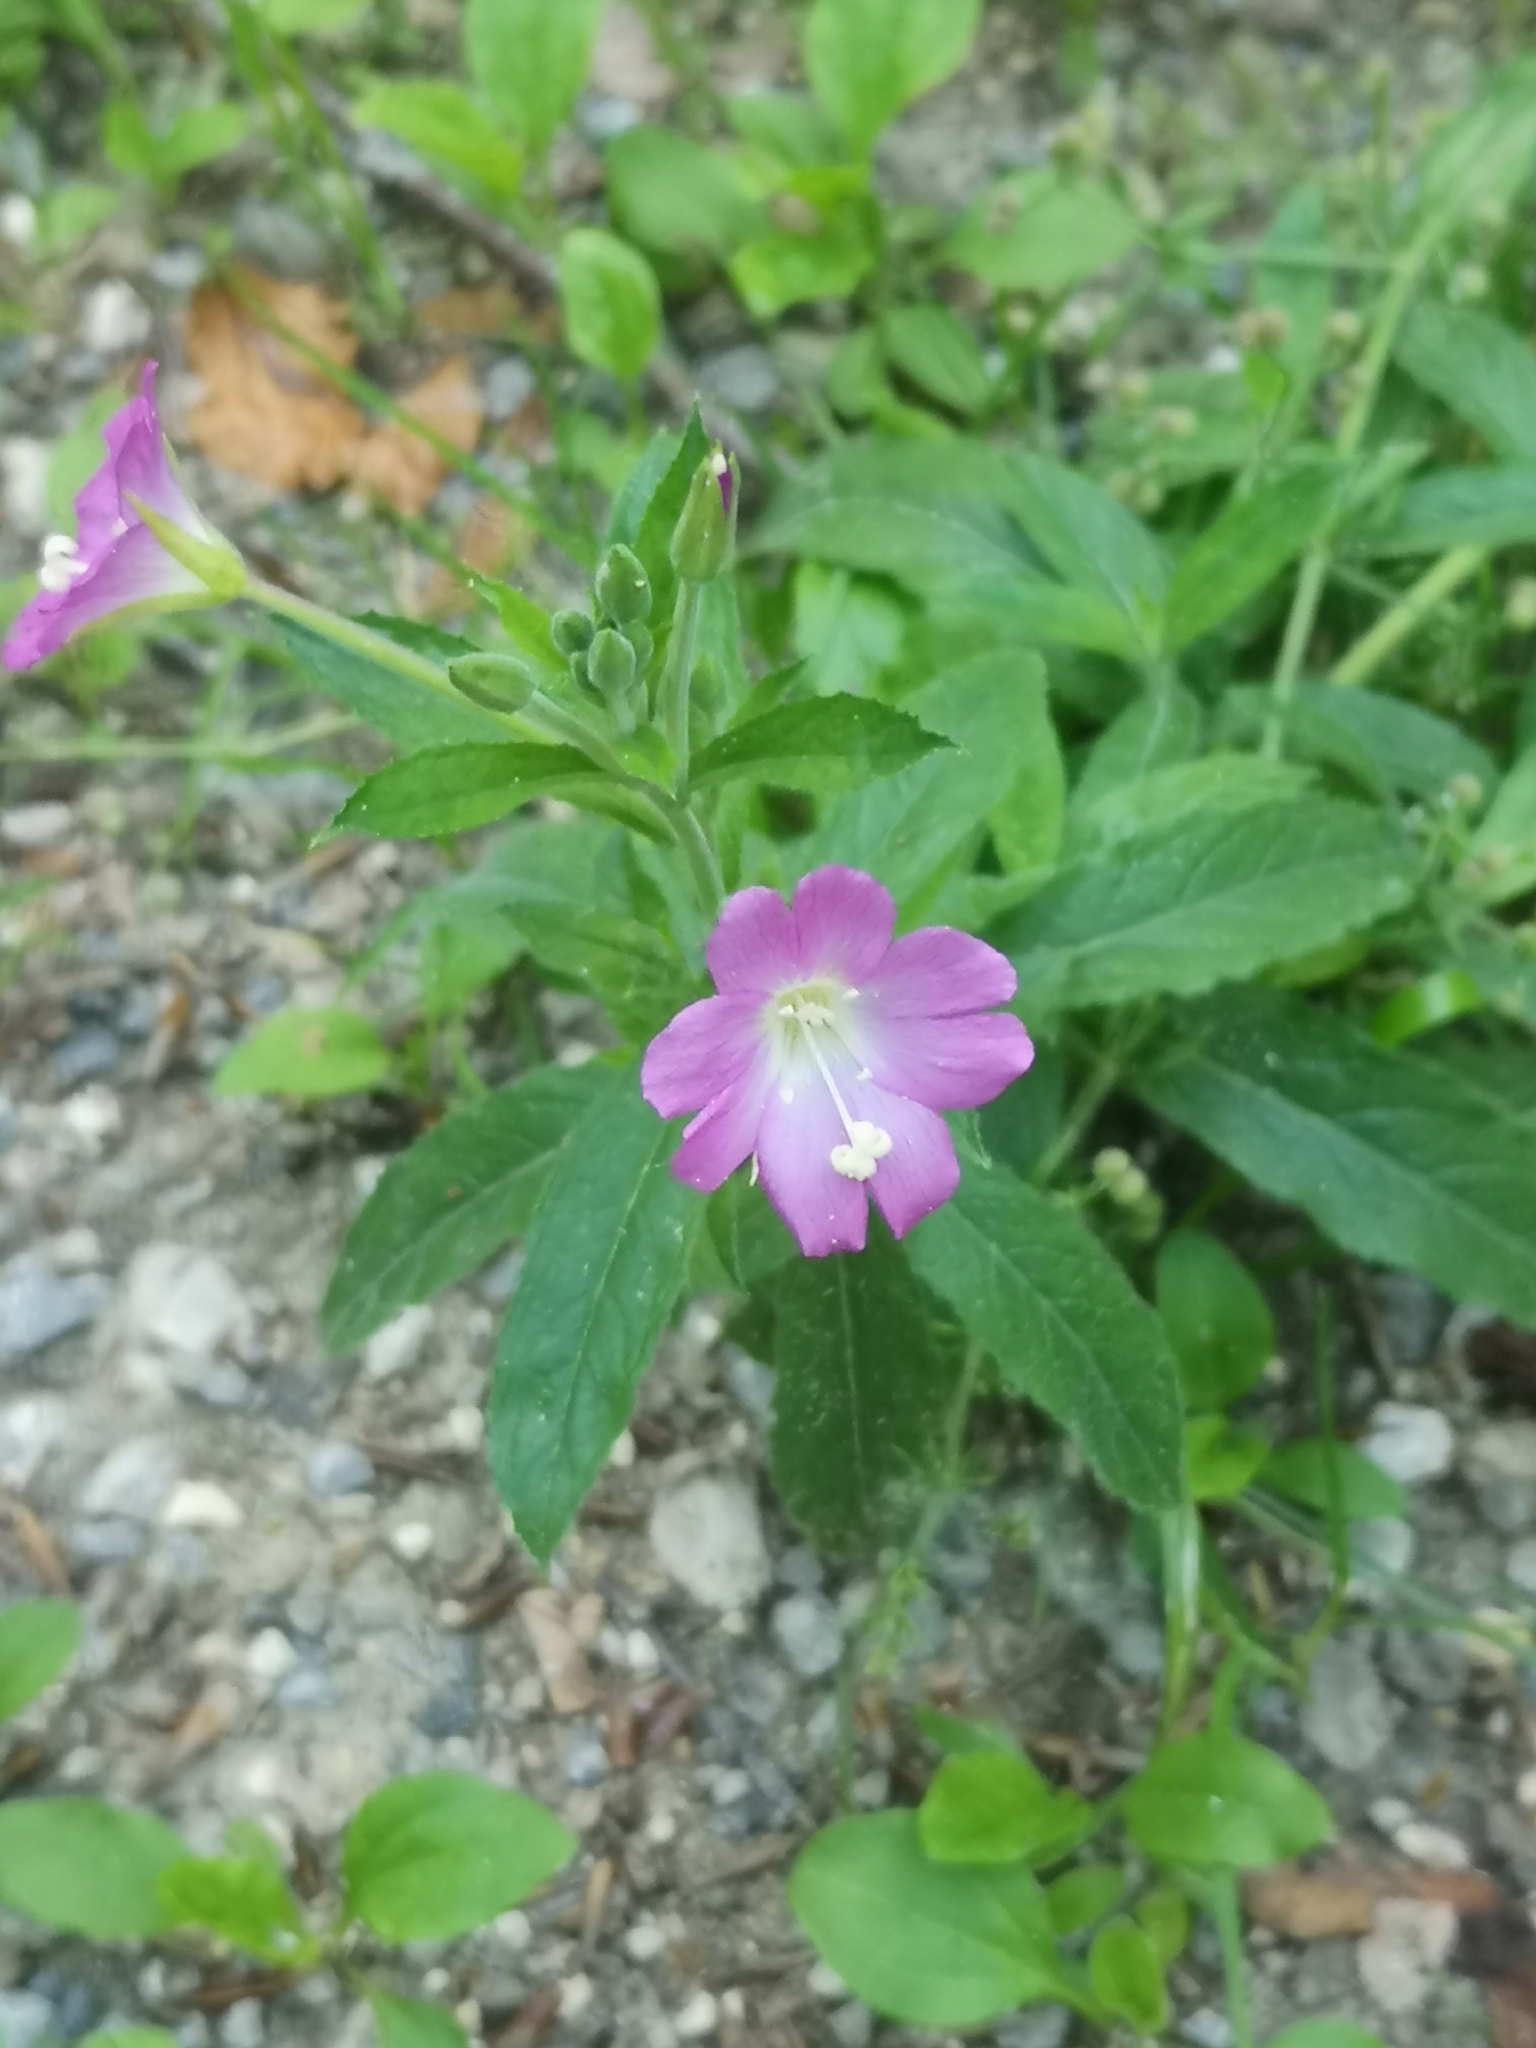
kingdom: Plantae
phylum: Tracheophyta
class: Magnoliopsida
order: Myrtales
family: Onagraceae
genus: Epilobium
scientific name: Epilobium hirsutum
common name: Great willowherb
